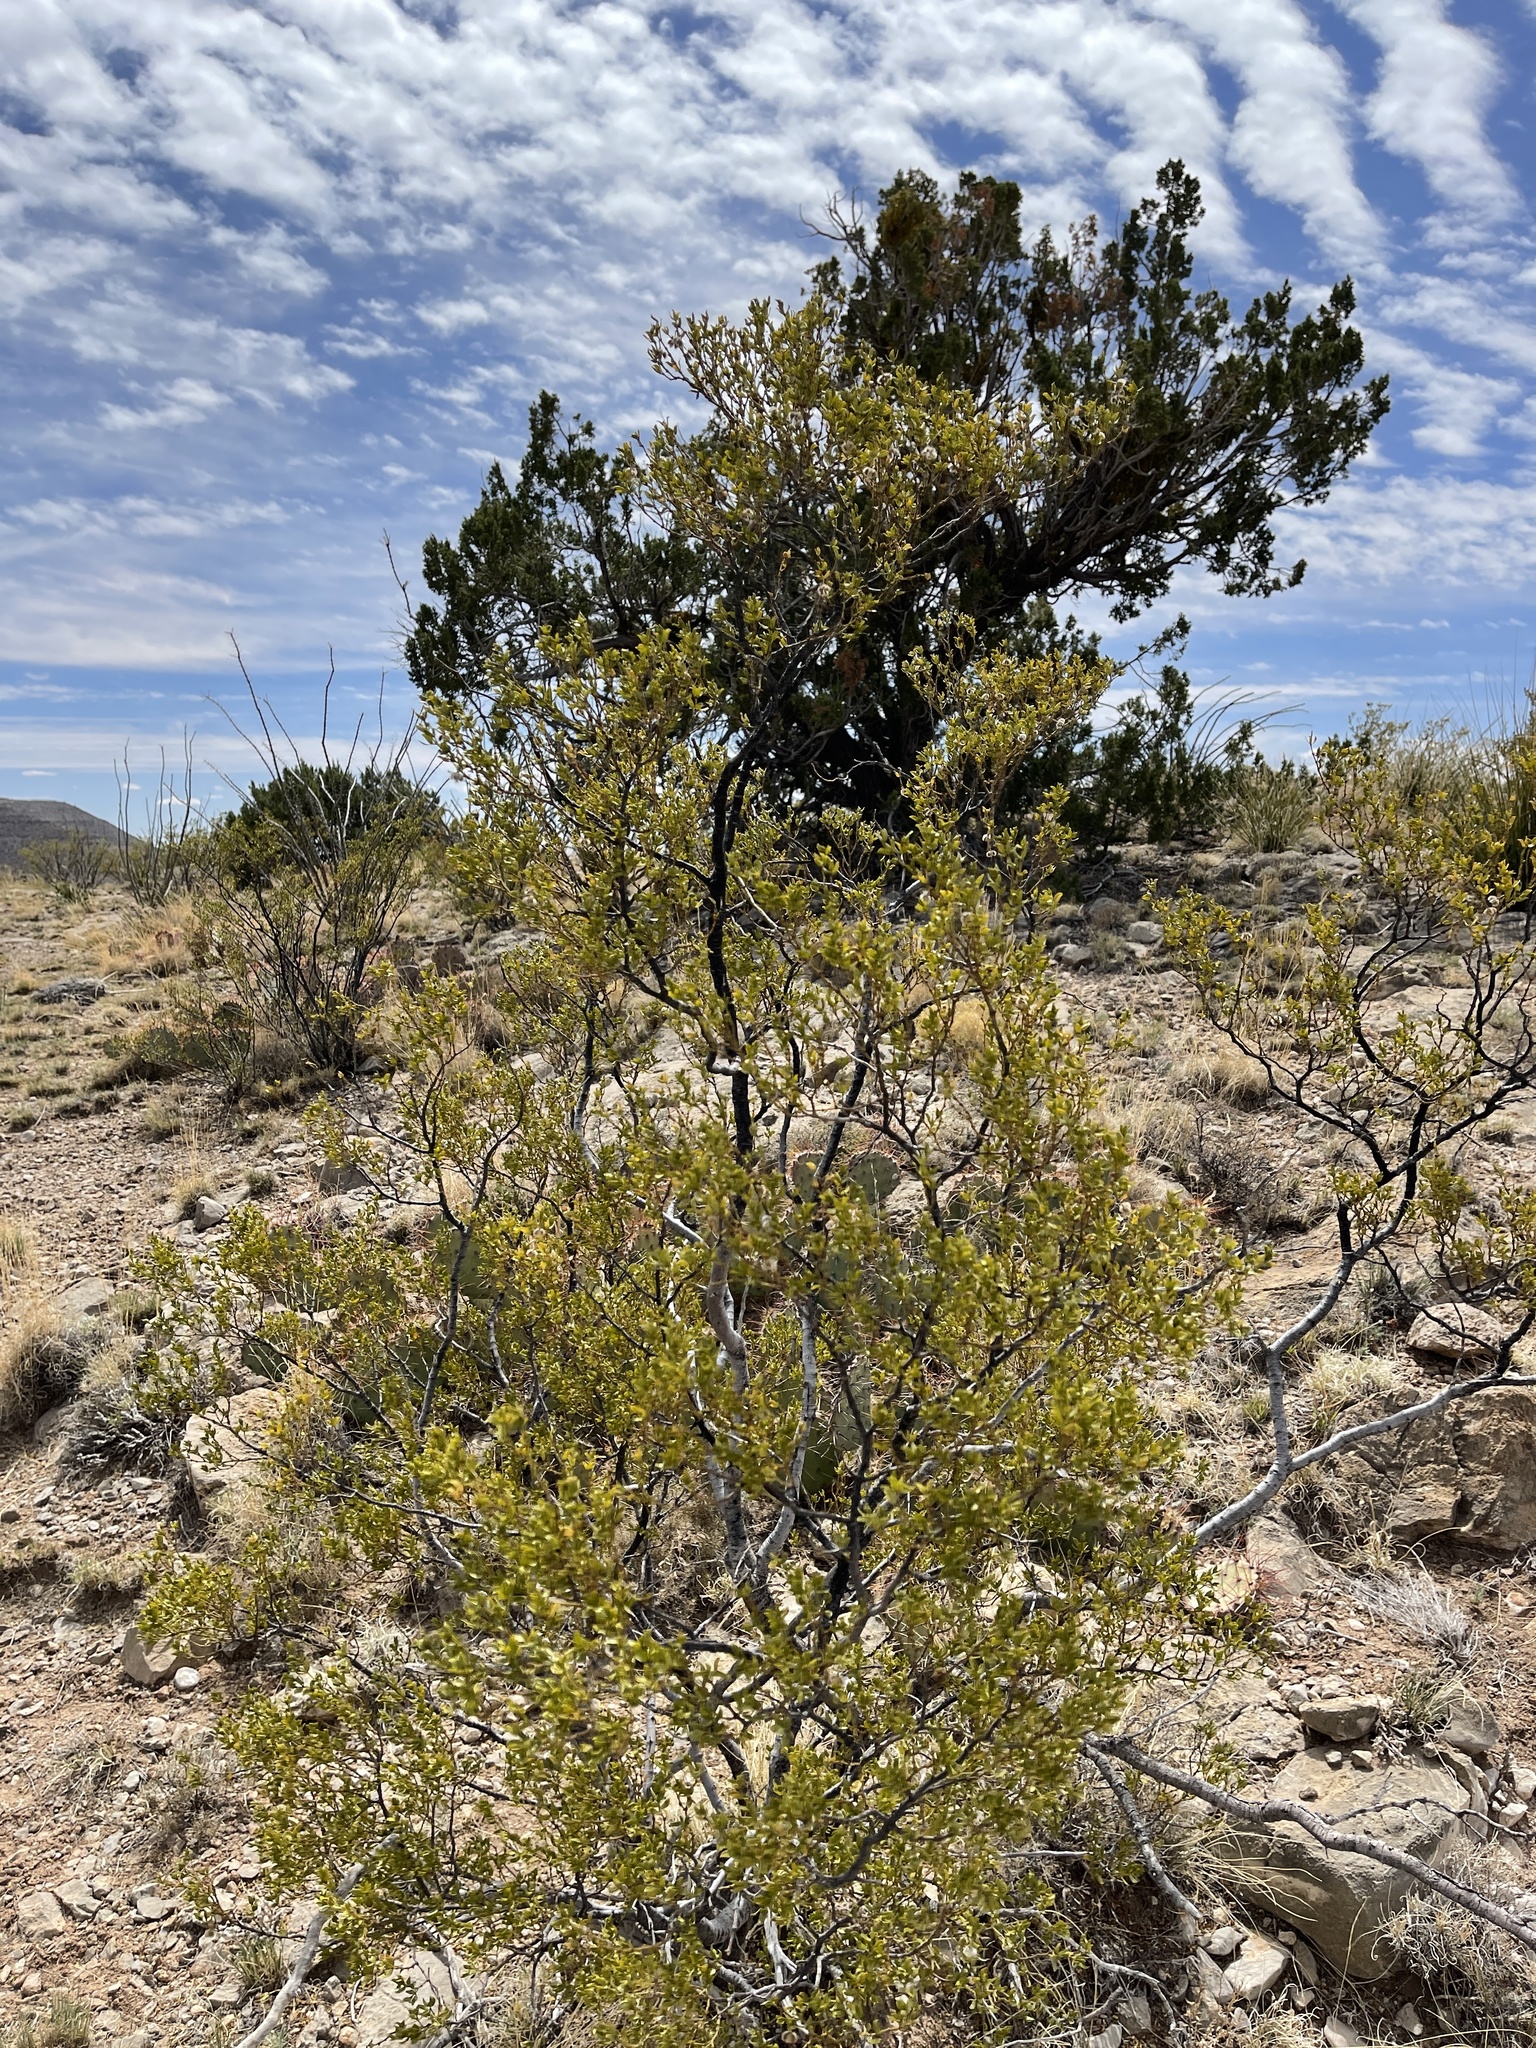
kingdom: Plantae
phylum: Tracheophyta
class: Magnoliopsida
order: Zygophyllales
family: Zygophyllaceae
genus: Larrea
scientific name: Larrea tridentata
